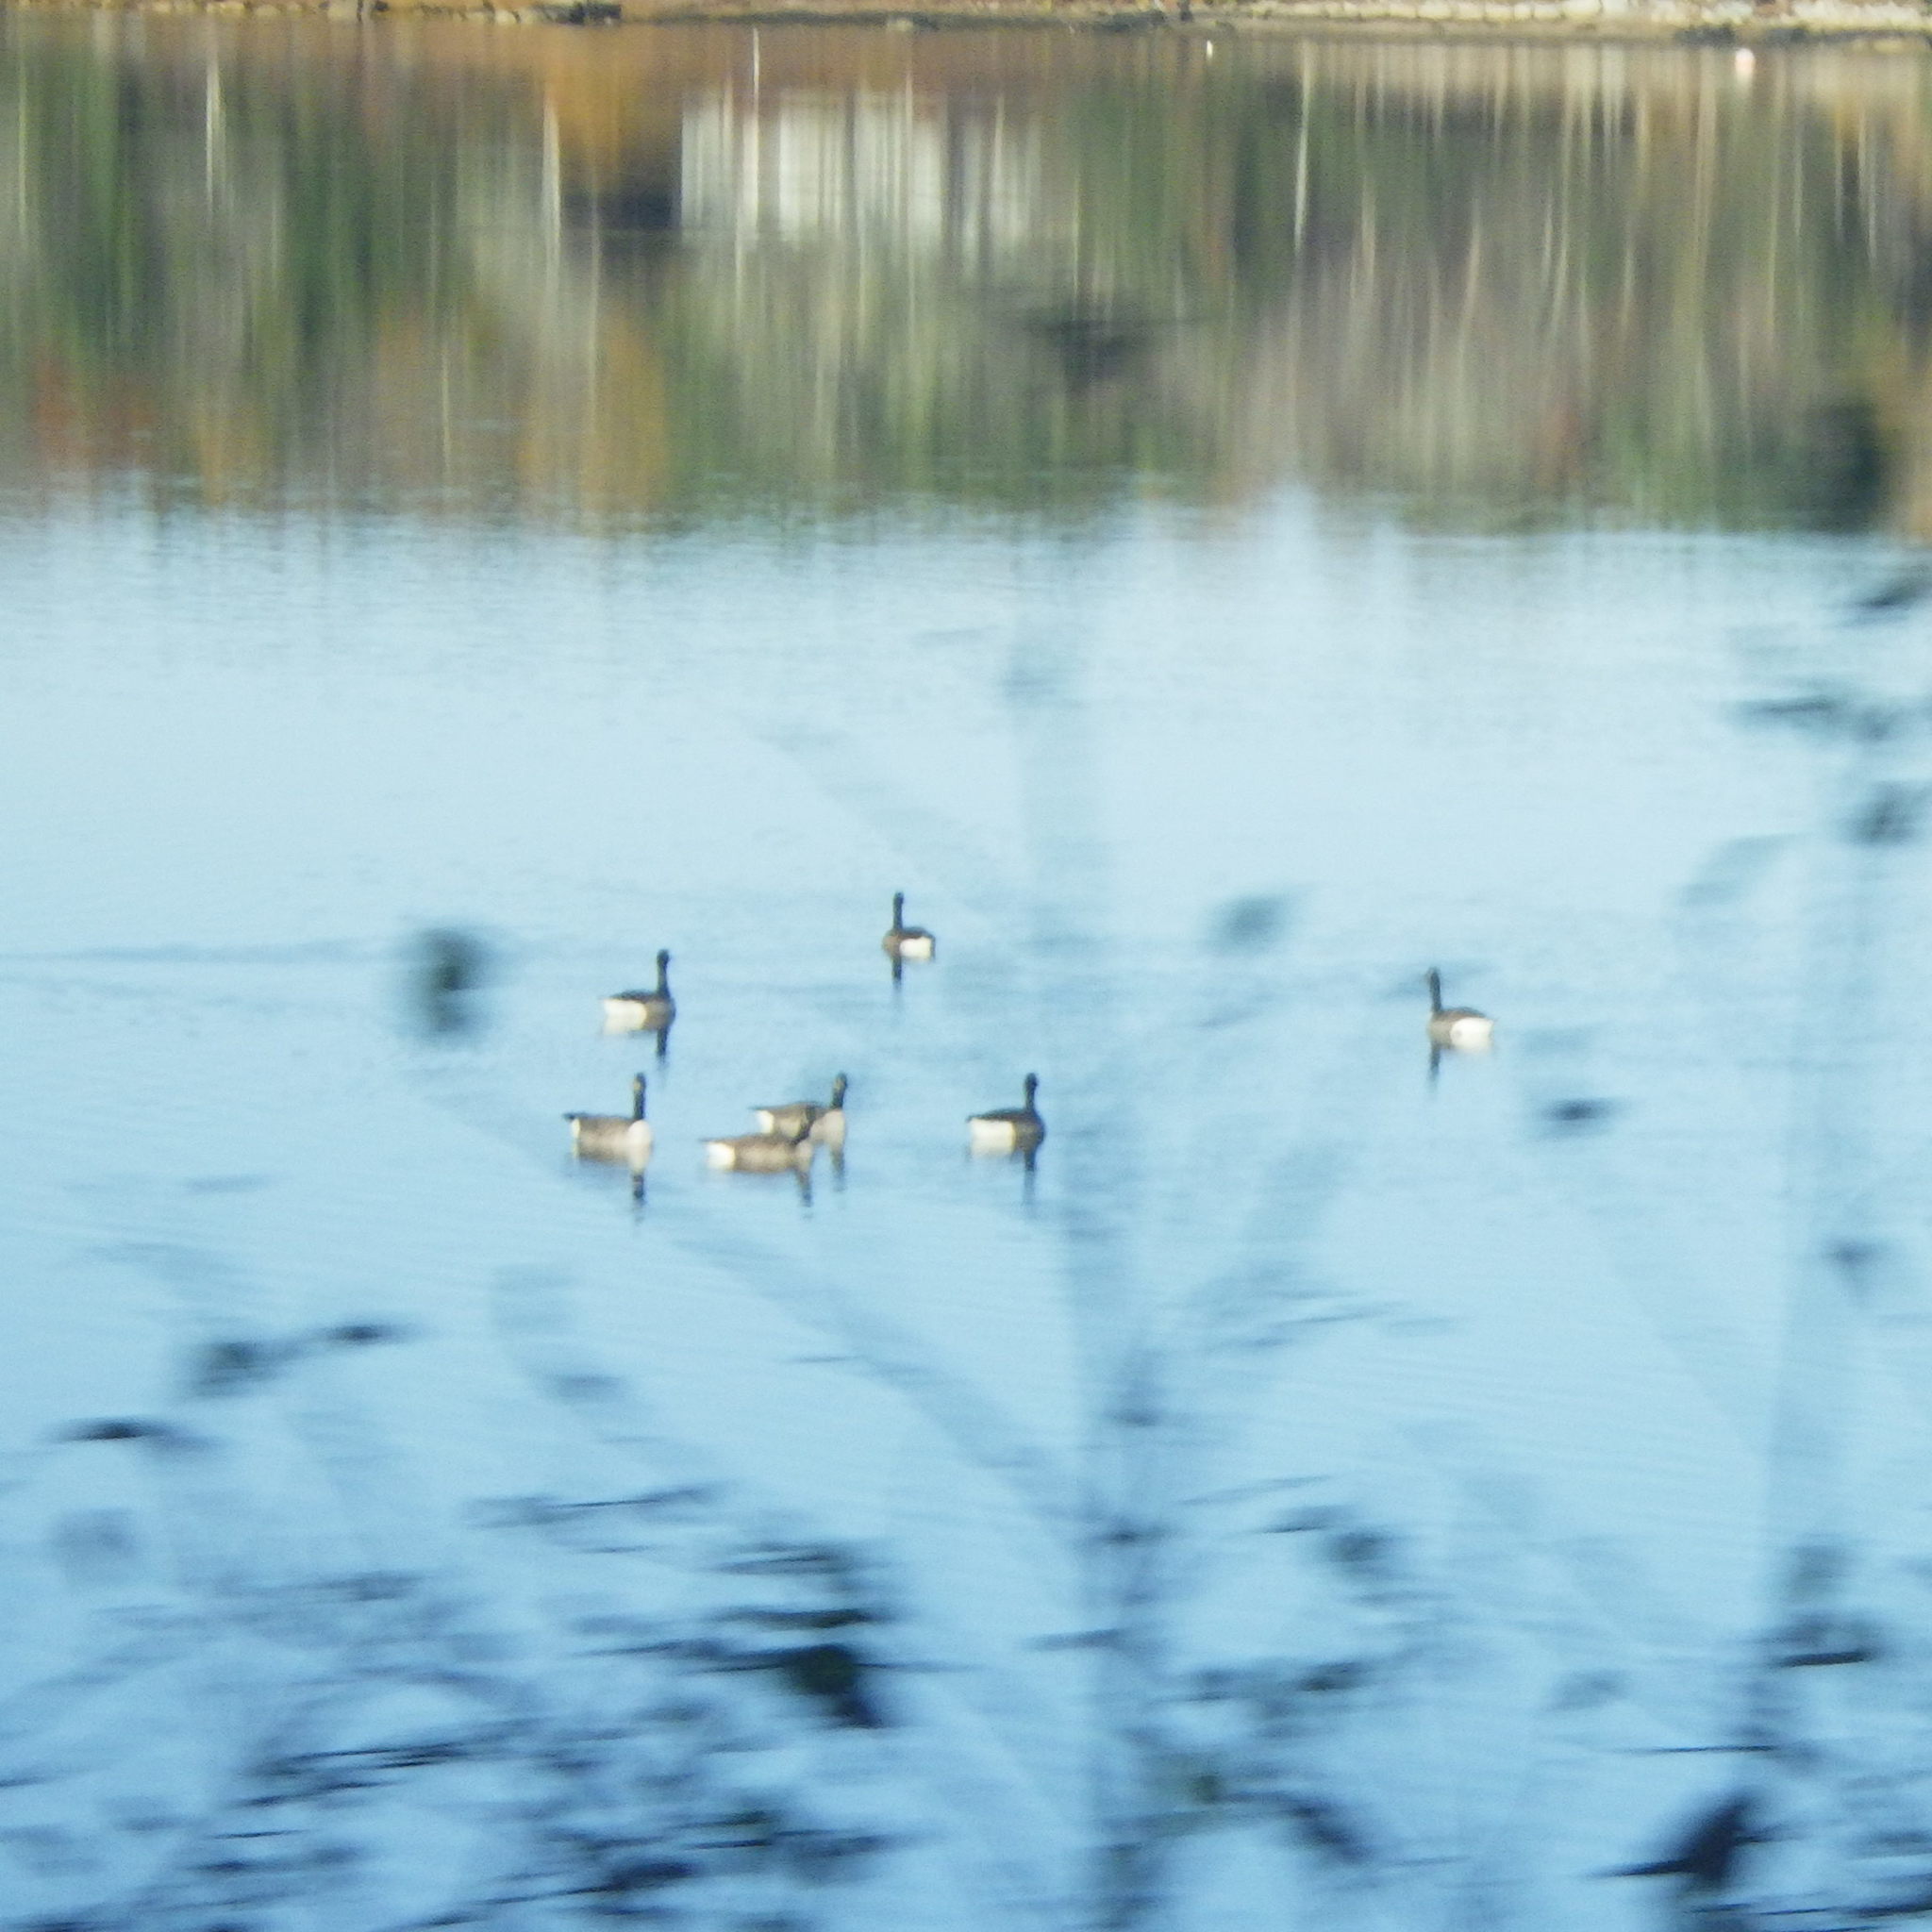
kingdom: Animalia
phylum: Chordata
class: Aves
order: Anseriformes
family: Anatidae
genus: Branta
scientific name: Branta canadensis
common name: Canada goose
